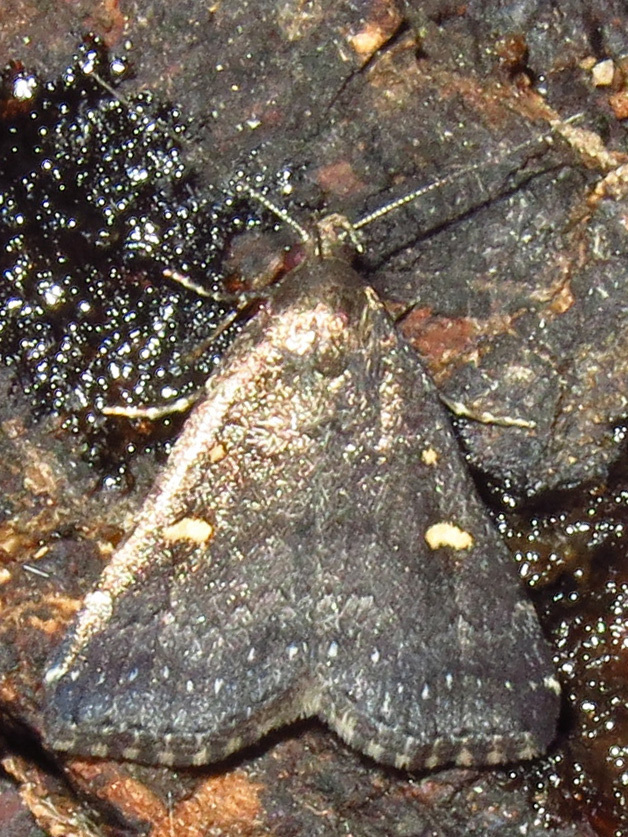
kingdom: Animalia
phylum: Arthropoda
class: Insecta
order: Lepidoptera
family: Erebidae
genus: Tetanolita
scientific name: Tetanolita mynesalis
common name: Smoky tetanolita moth
